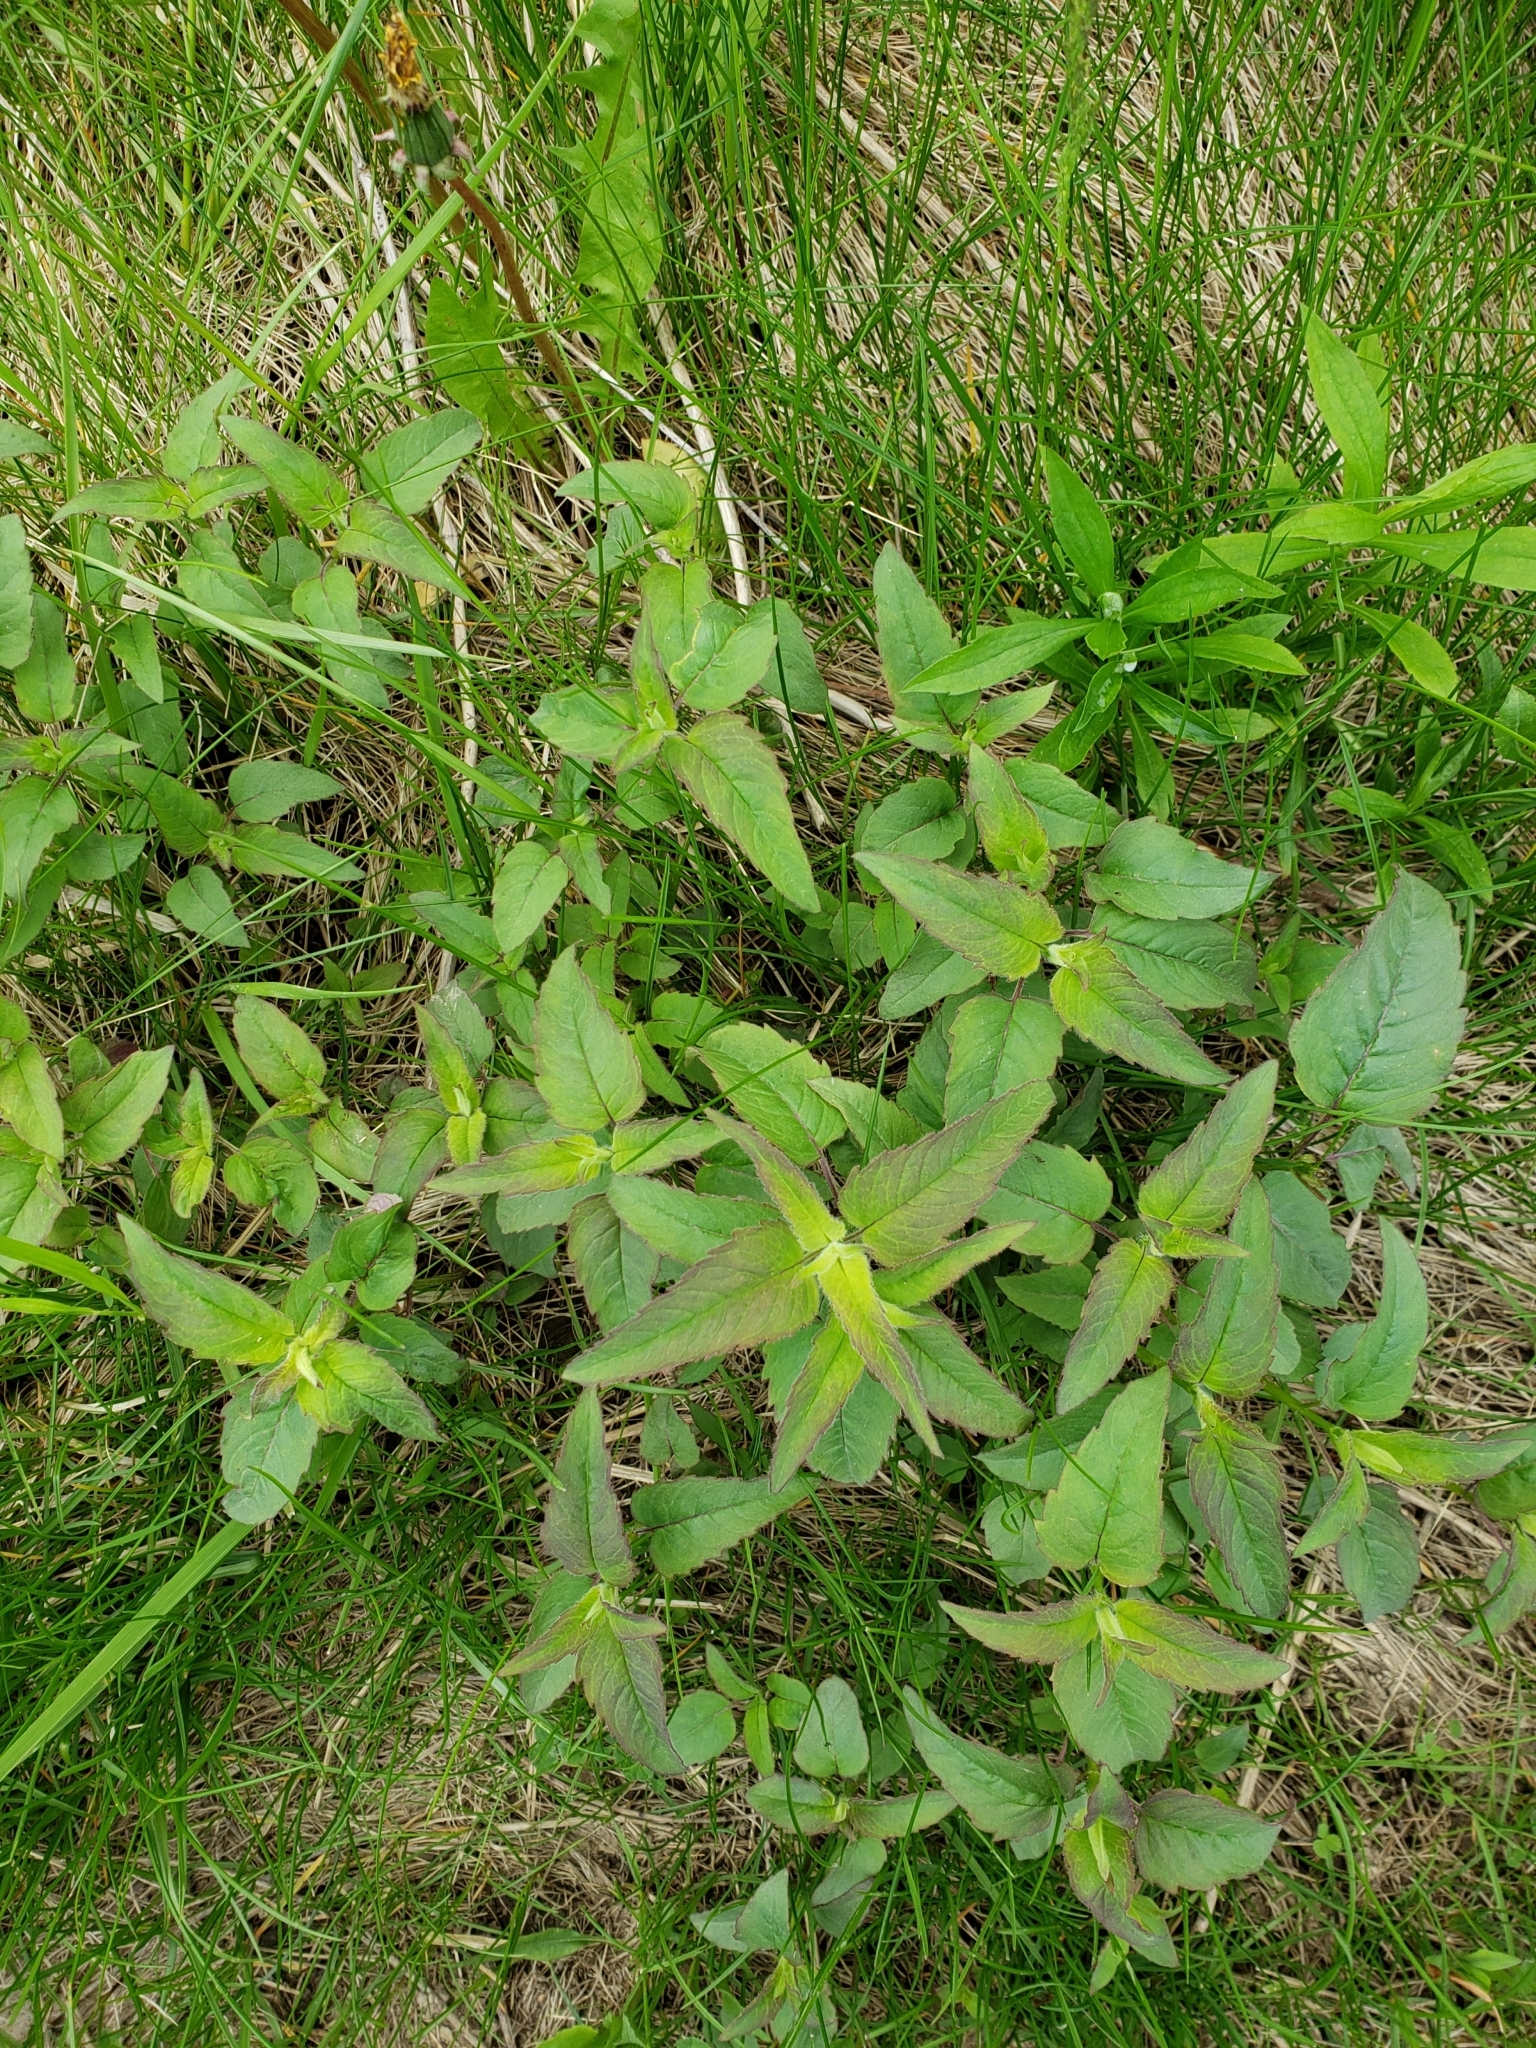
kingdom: Plantae
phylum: Tracheophyta
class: Magnoliopsida
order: Lamiales
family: Lamiaceae
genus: Monarda
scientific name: Monarda fistulosa
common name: Purple beebalm
